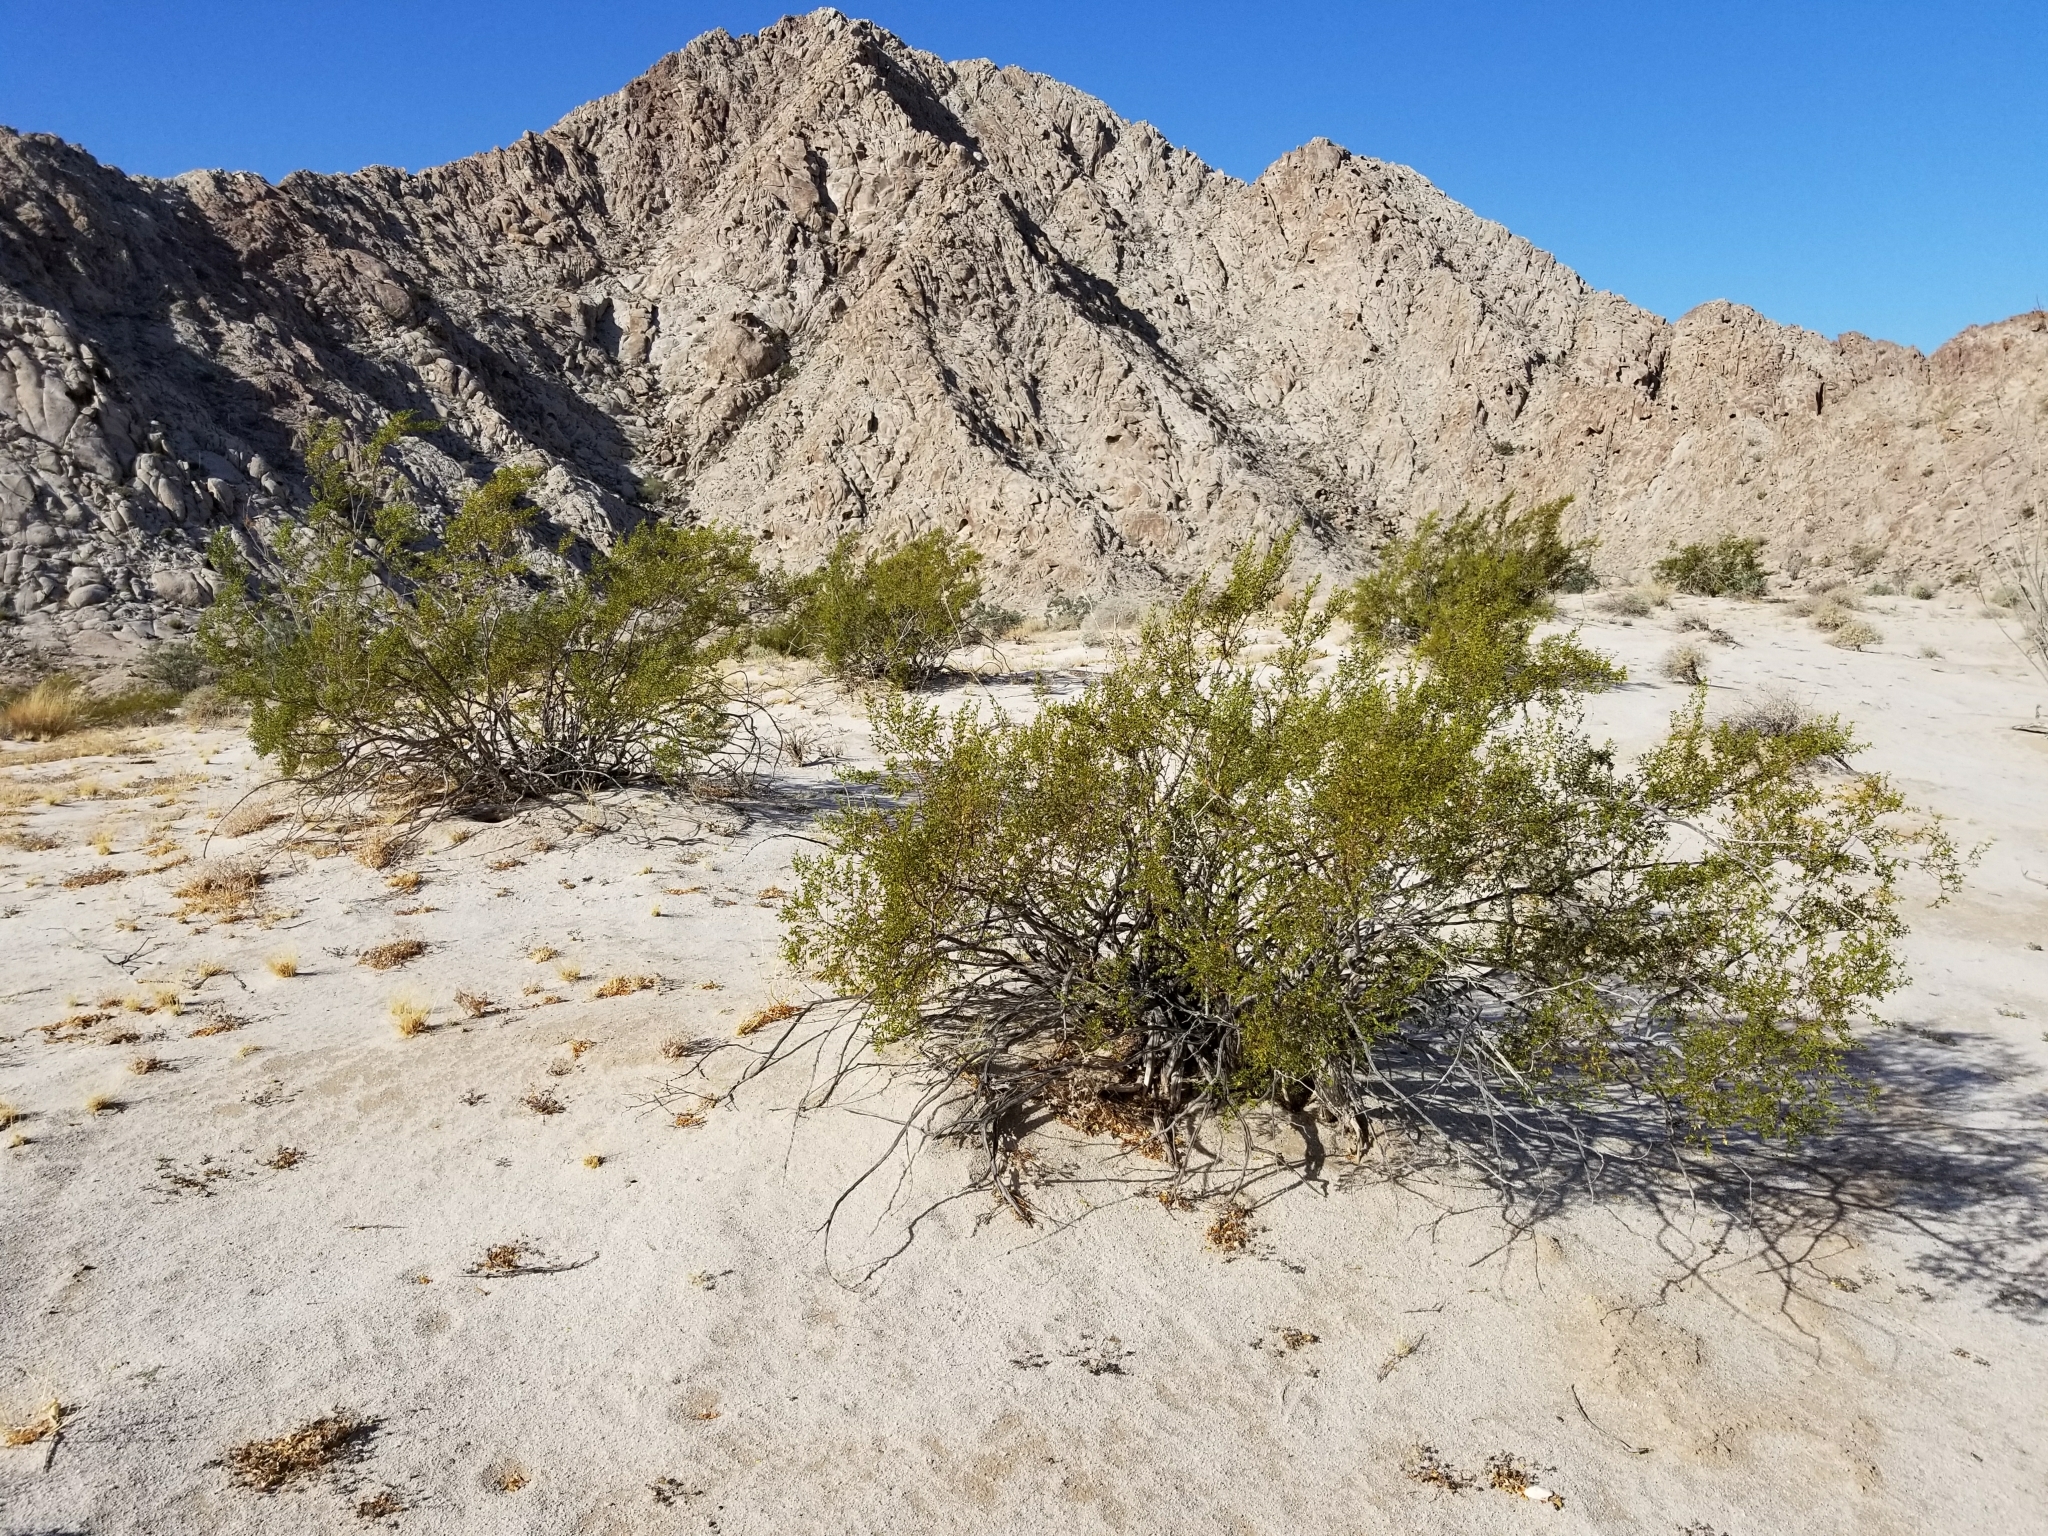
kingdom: Plantae
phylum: Tracheophyta
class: Magnoliopsida
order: Zygophyllales
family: Zygophyllaceae
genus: Larrea
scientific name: Larrea tridentata
